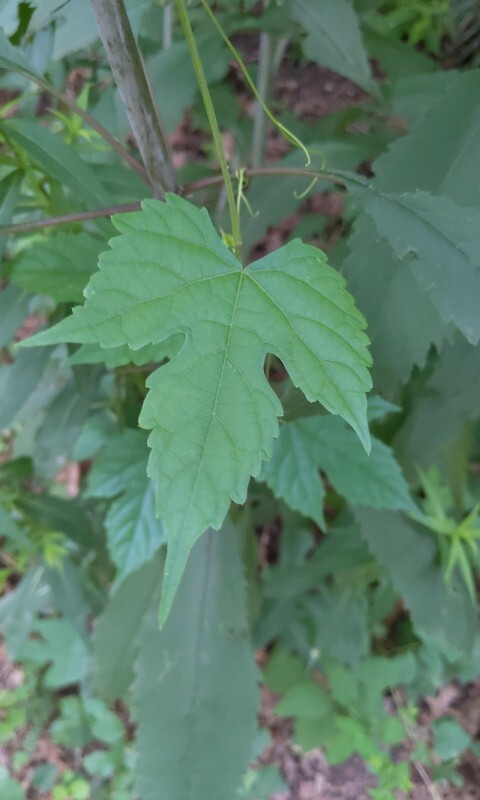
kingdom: Plantae
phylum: Tracheophyta
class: Magnoliopsida
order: Vitales
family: Vitaceae
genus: Ampelopsis
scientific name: Ampelopsis glandulosa
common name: Amur peppervine
